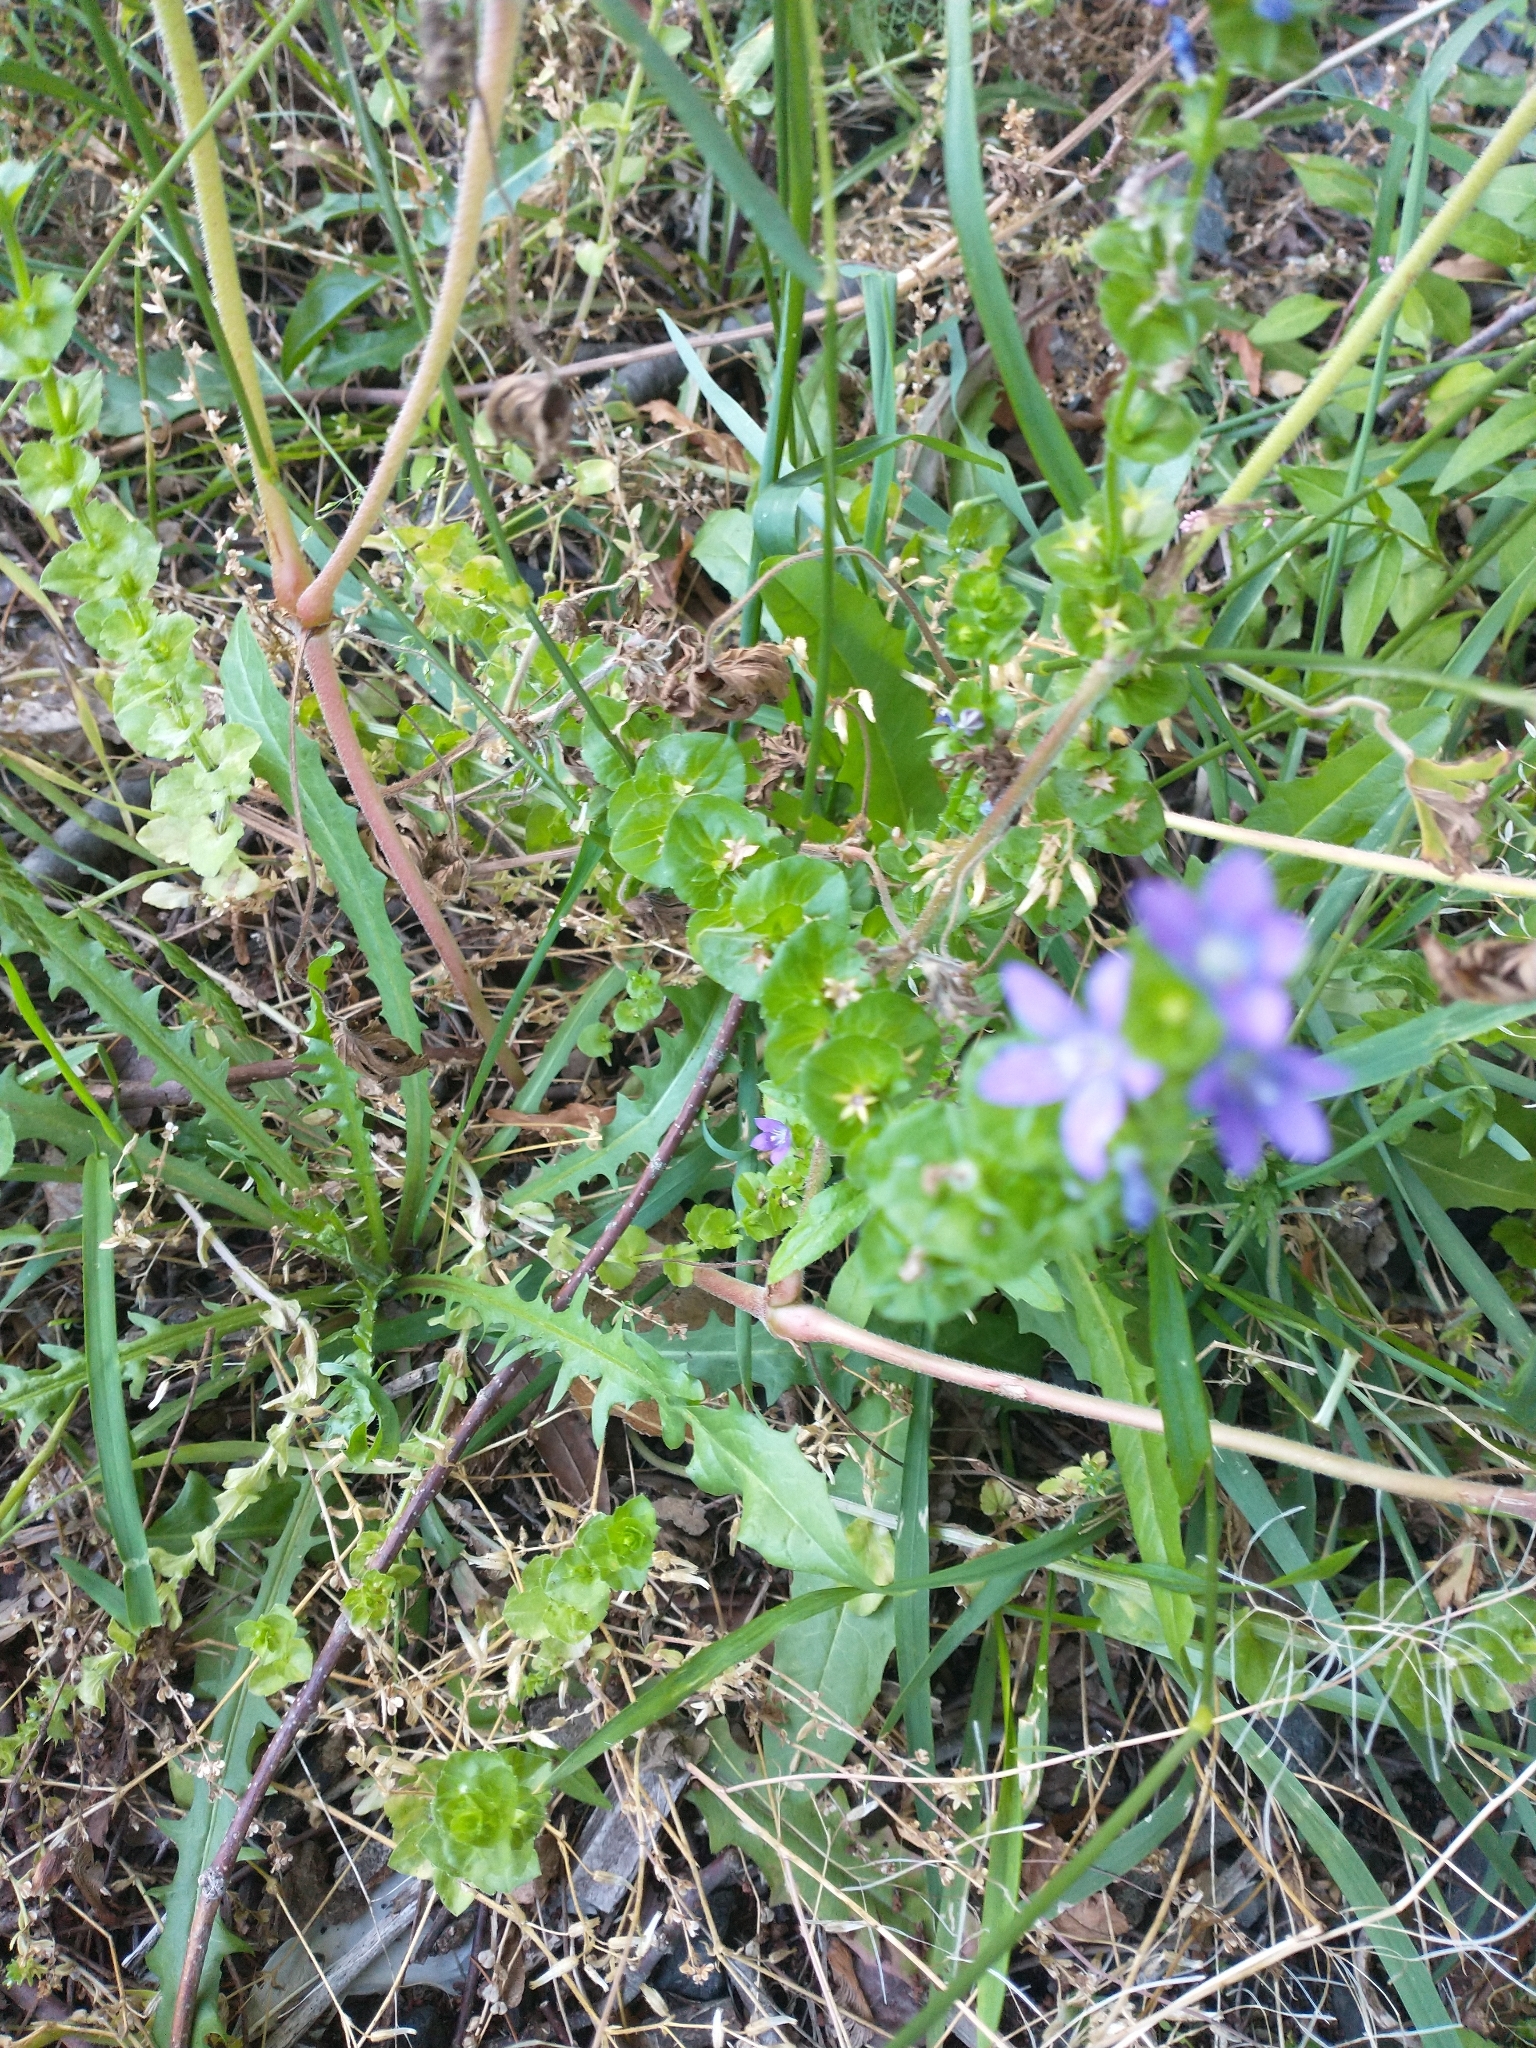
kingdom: Plantae
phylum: Tracheophyta
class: Magnoliopsida
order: Asterales
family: Campanulaceae
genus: Triodanis
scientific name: Triodanis perfoliata
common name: Clasping venus' looking-glass
